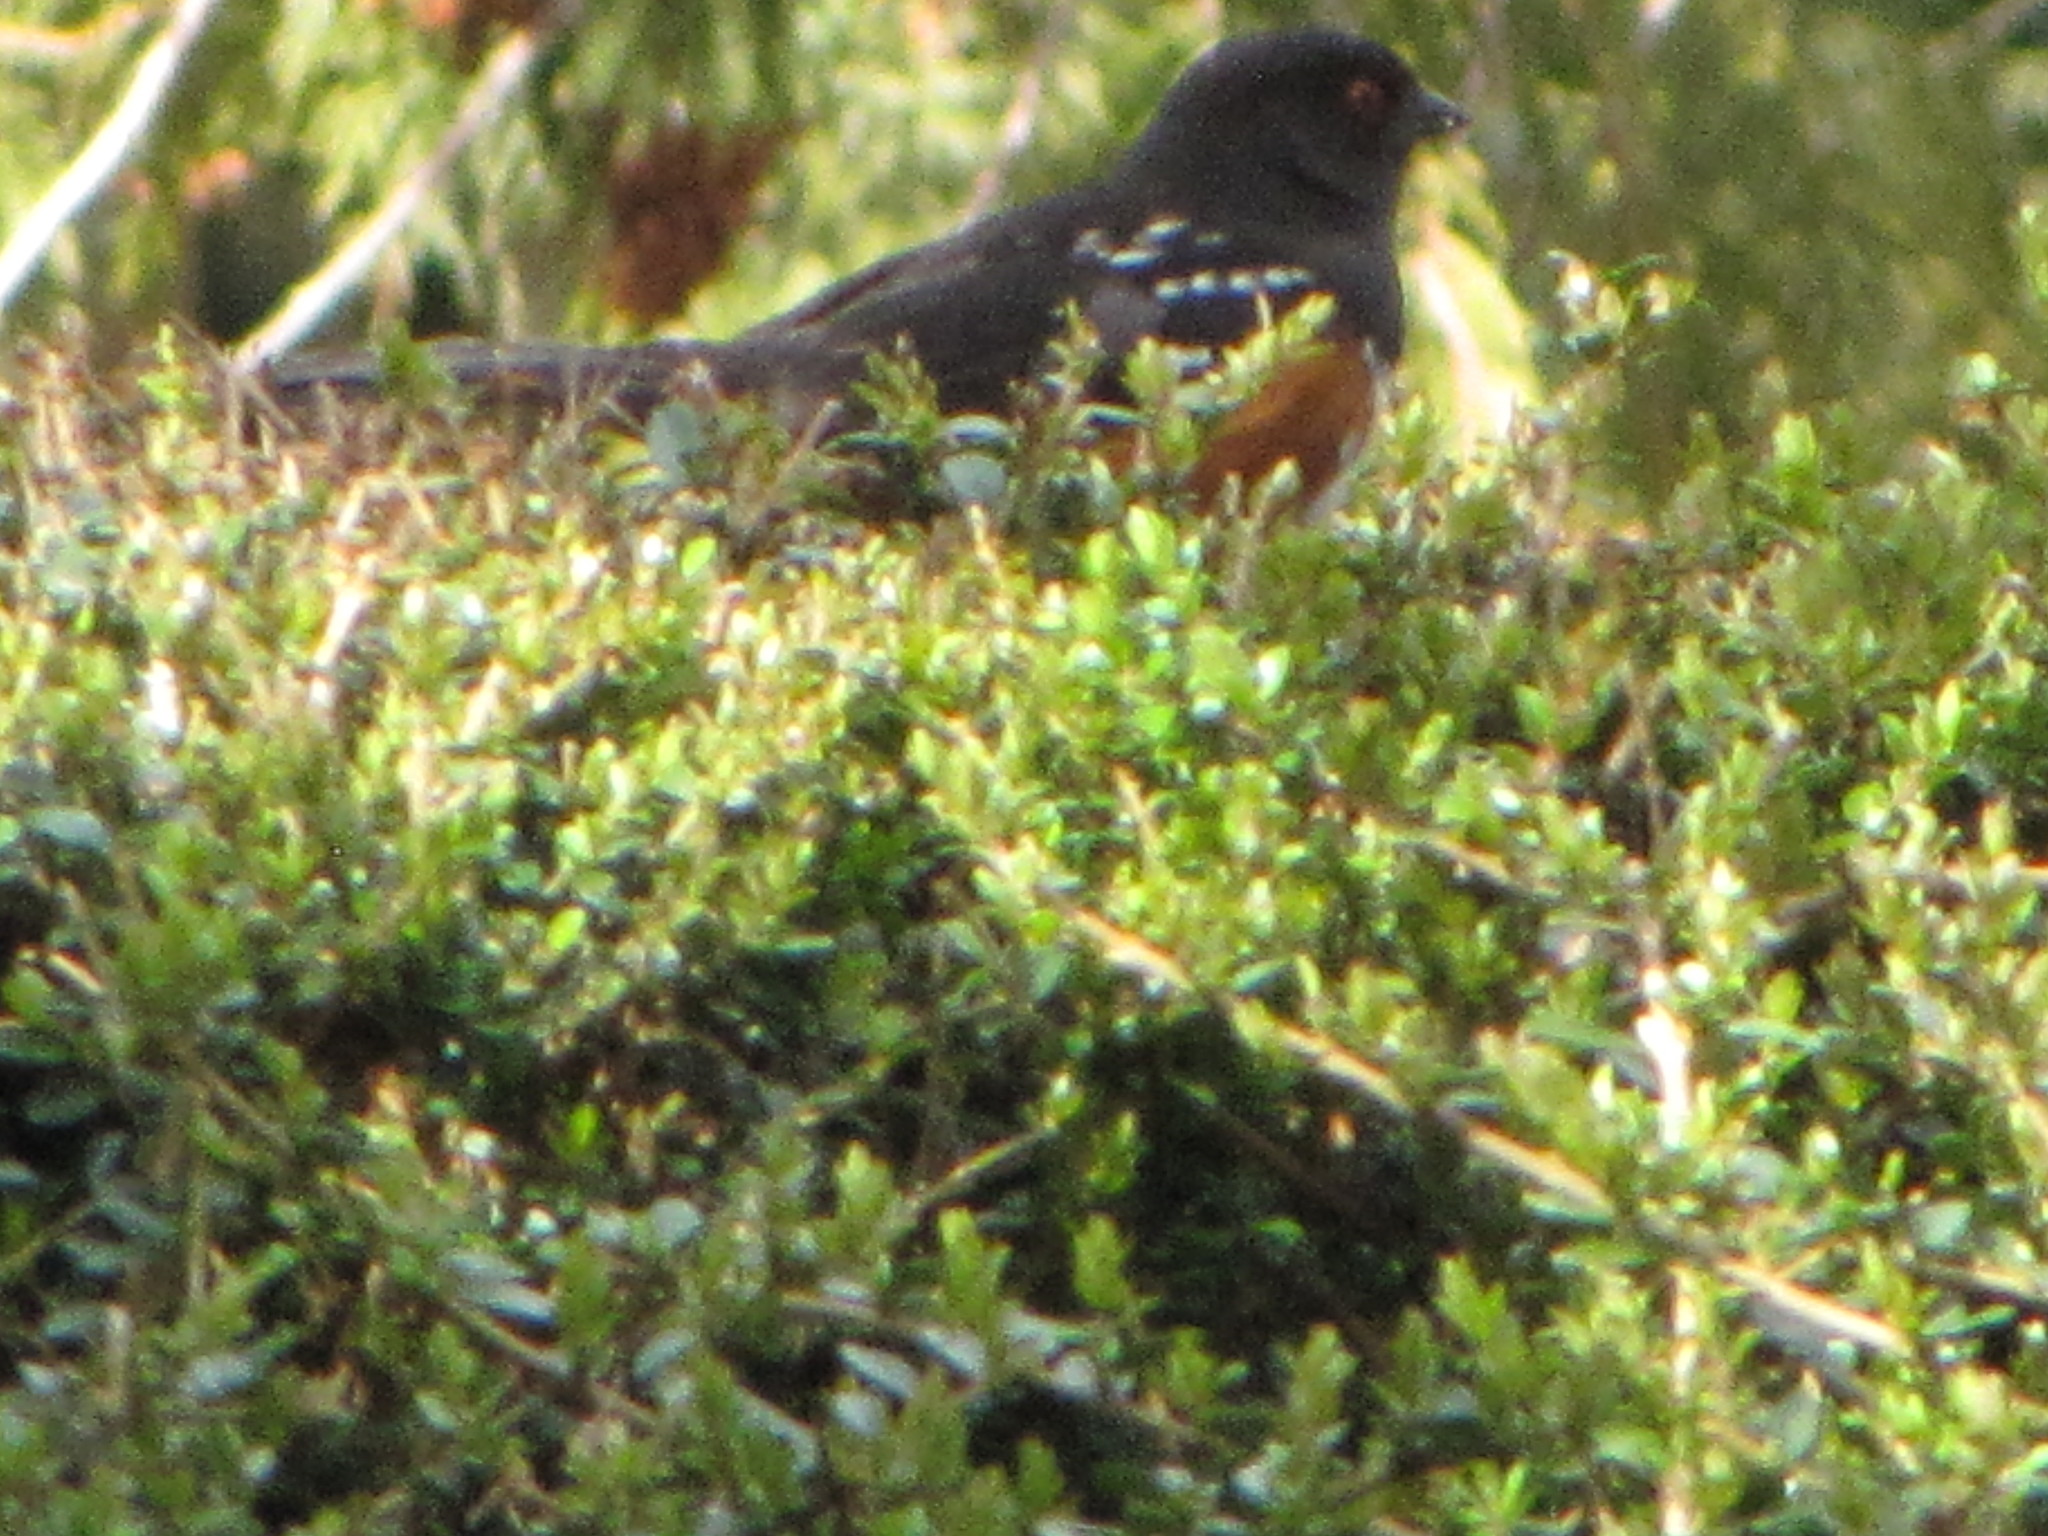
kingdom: Animalia
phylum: Chordata
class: Aves
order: Passeriformes
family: Passerellidae
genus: Pipilo
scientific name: Pipilo maculatus
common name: Spotted towhee
